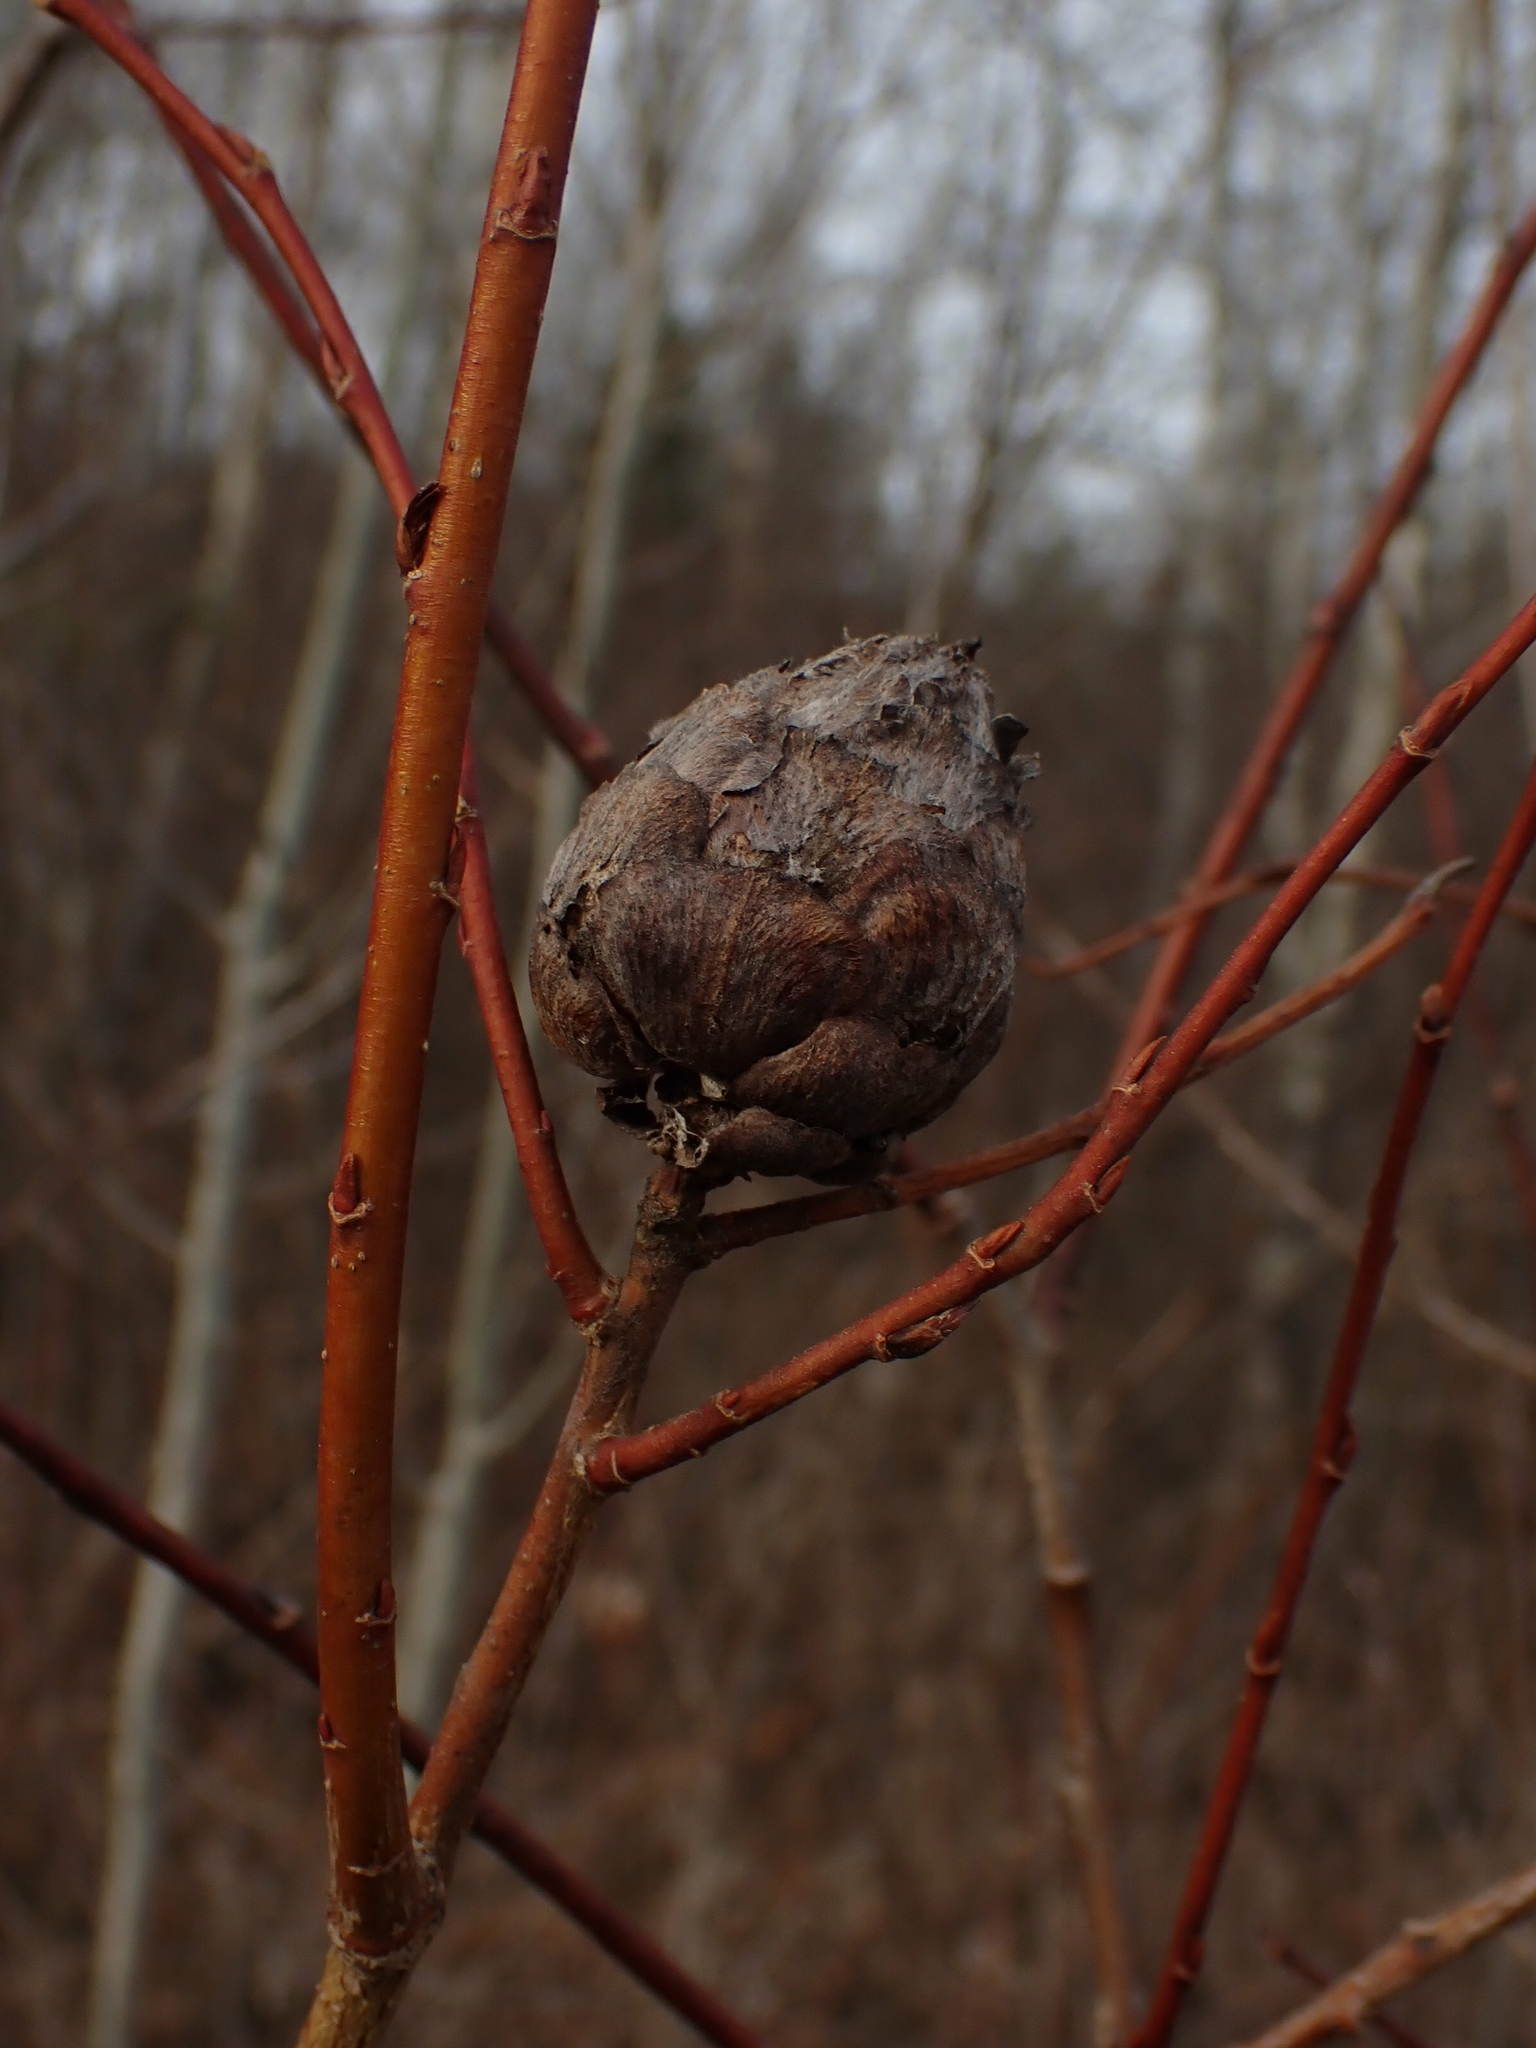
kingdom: Animalia
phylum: Arthropoda
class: Insecta
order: Diptera
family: Cecidomyiidae
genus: Rabdophaga
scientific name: Rabdophaga strobiloides
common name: Willow pinecone gall midge
